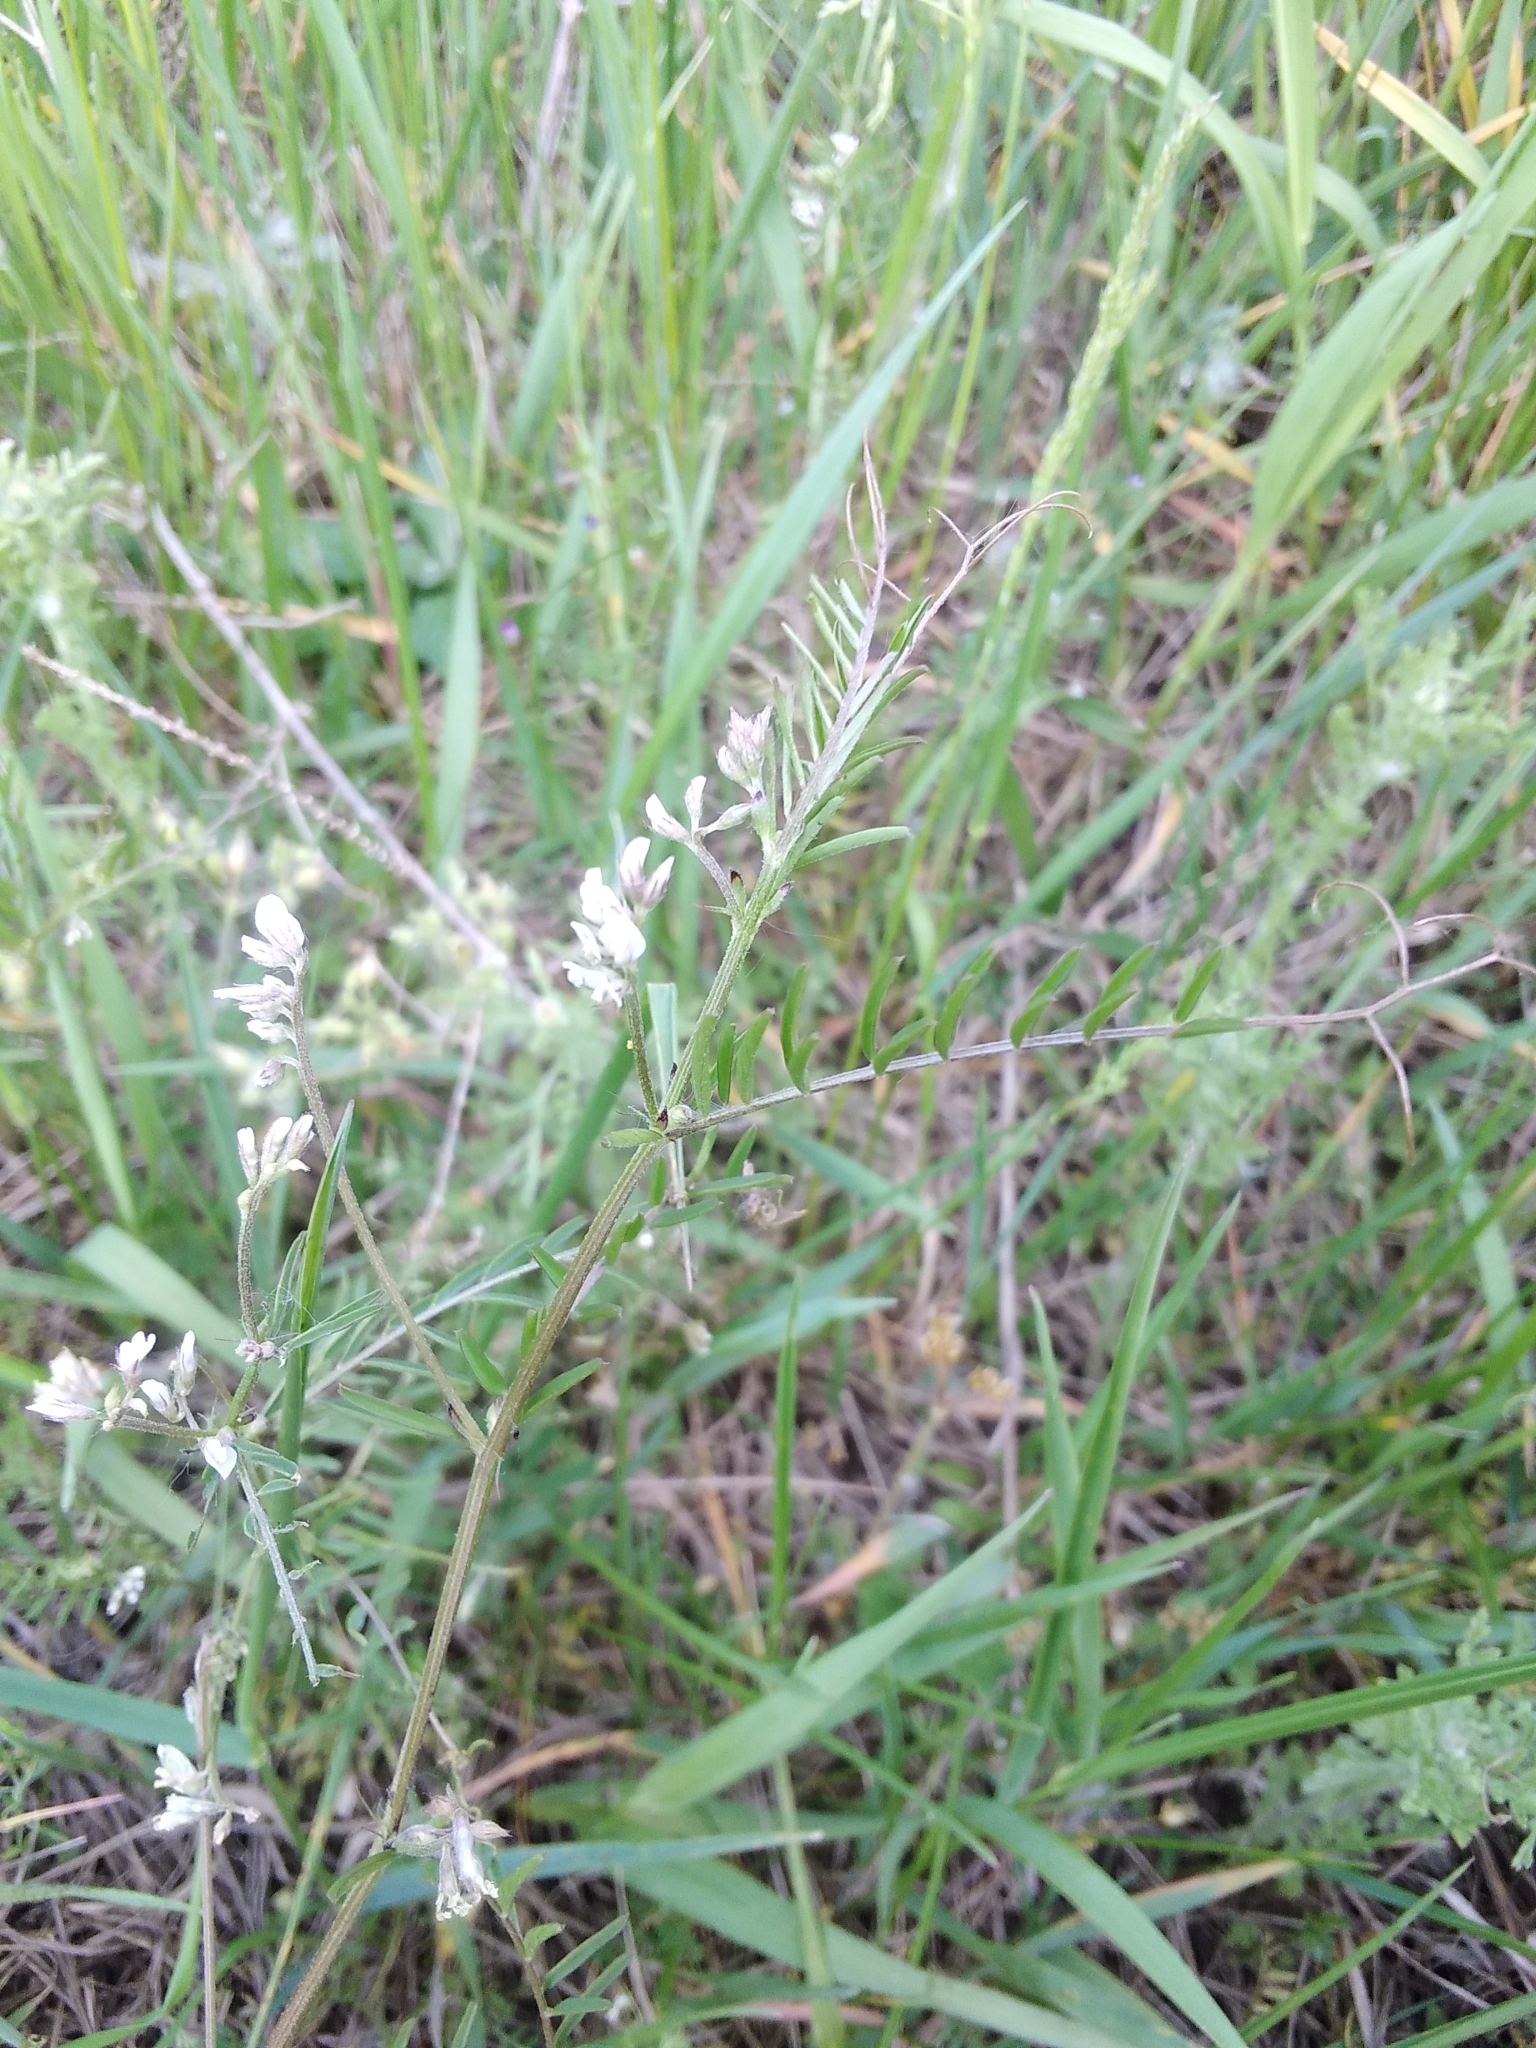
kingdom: Plantae
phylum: Tracheophyta
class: Magnoliopsida
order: Fabales
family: Fabaceae
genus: Vicia
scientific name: Vicia hirsuta
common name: Tiny vetch
